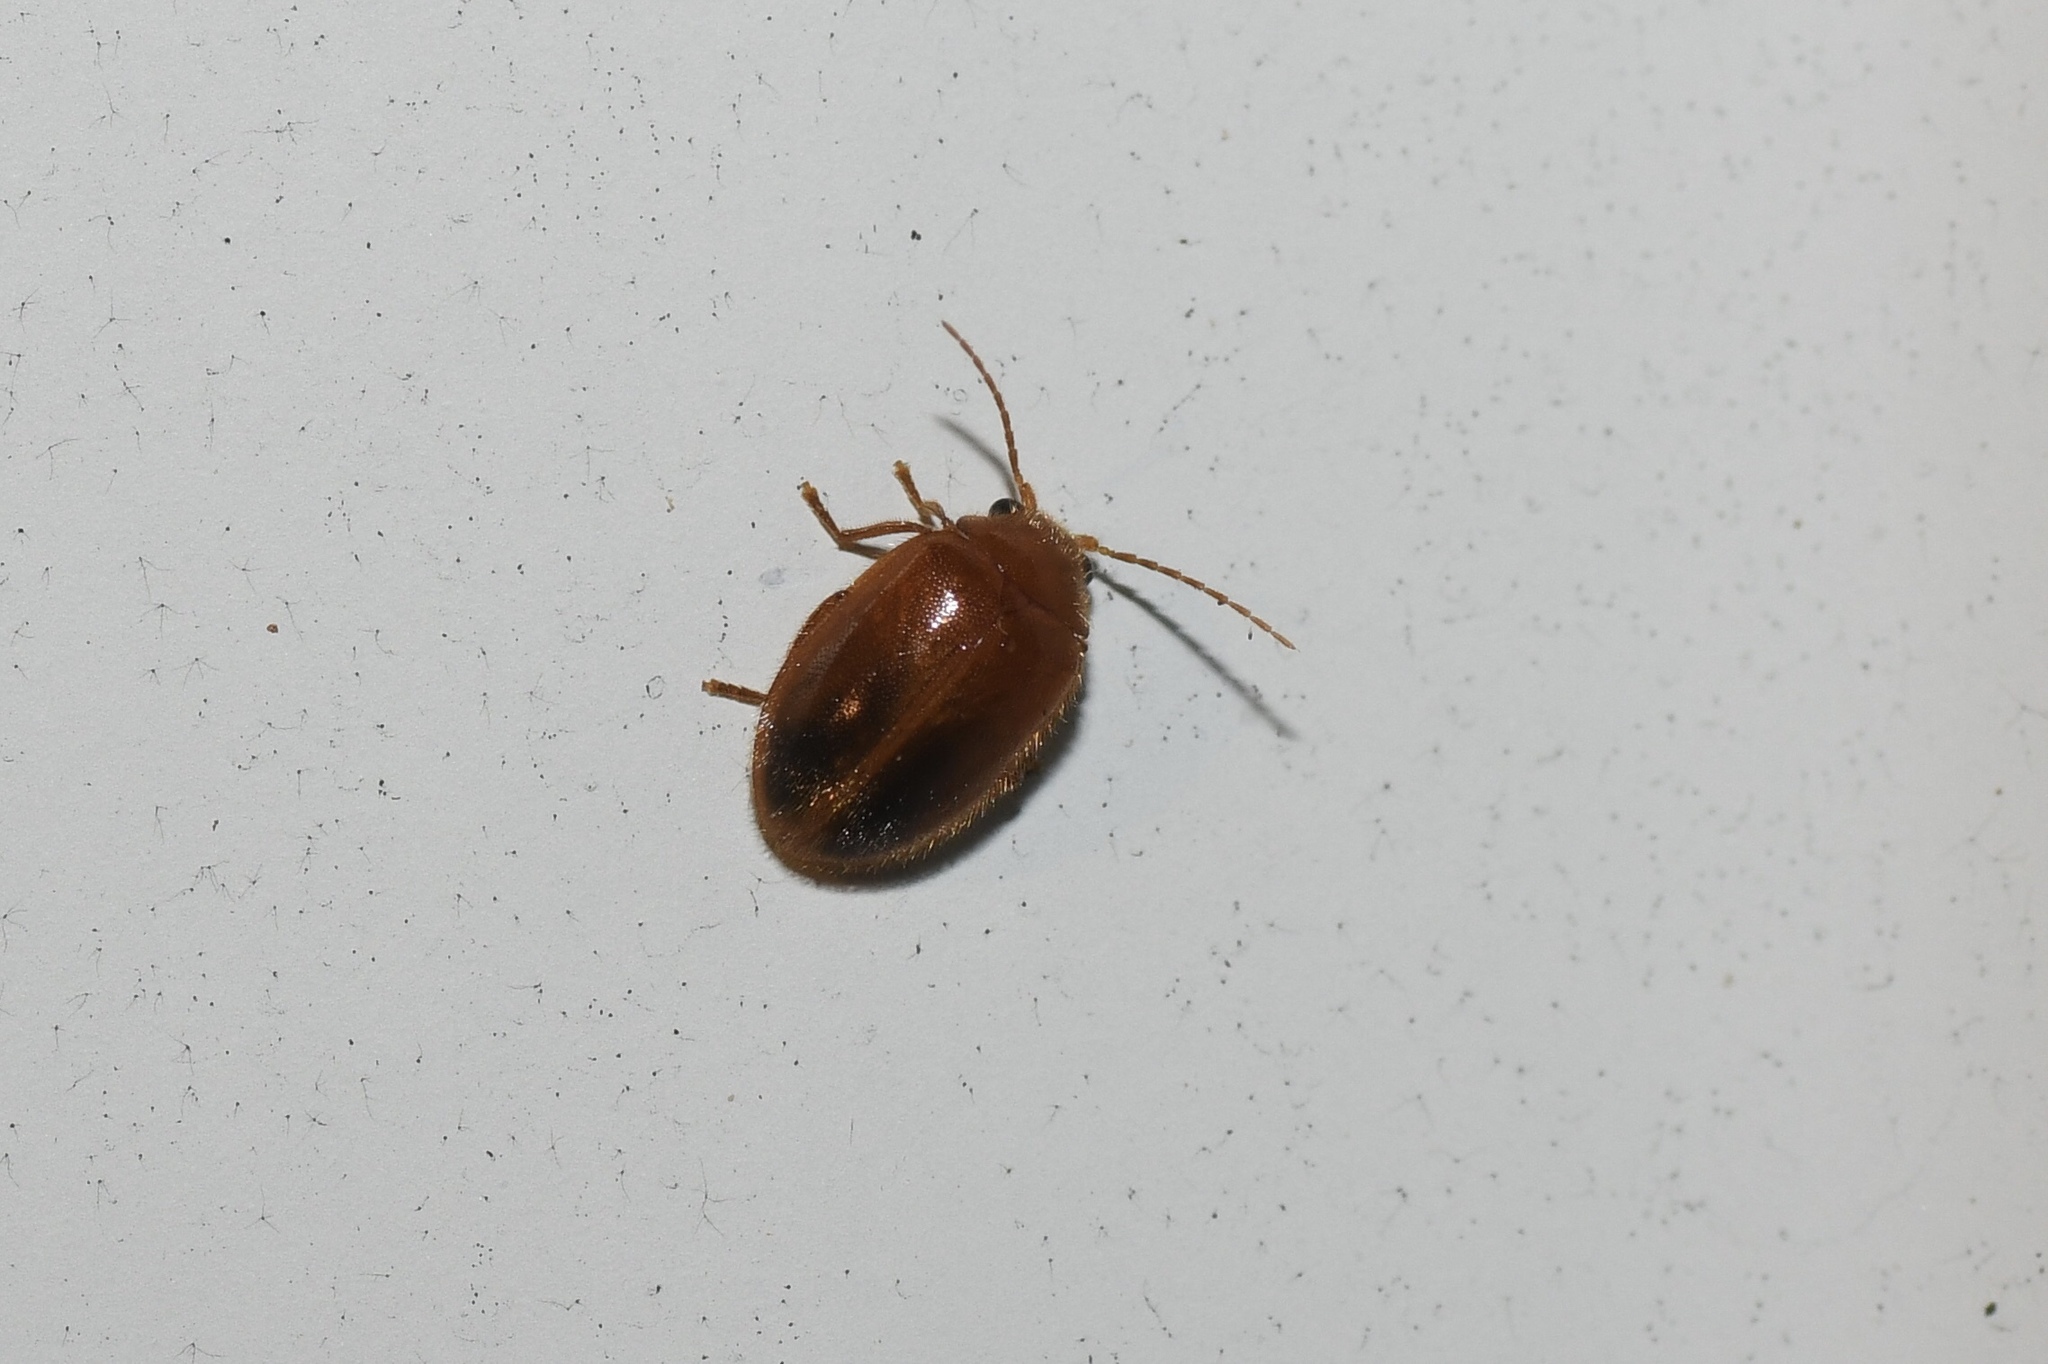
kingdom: Animalia
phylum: Arthropoda
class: Insecta
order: Coleoptera
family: Scirtidae
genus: Prionocyphon
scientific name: Prionocyphon limbatus
